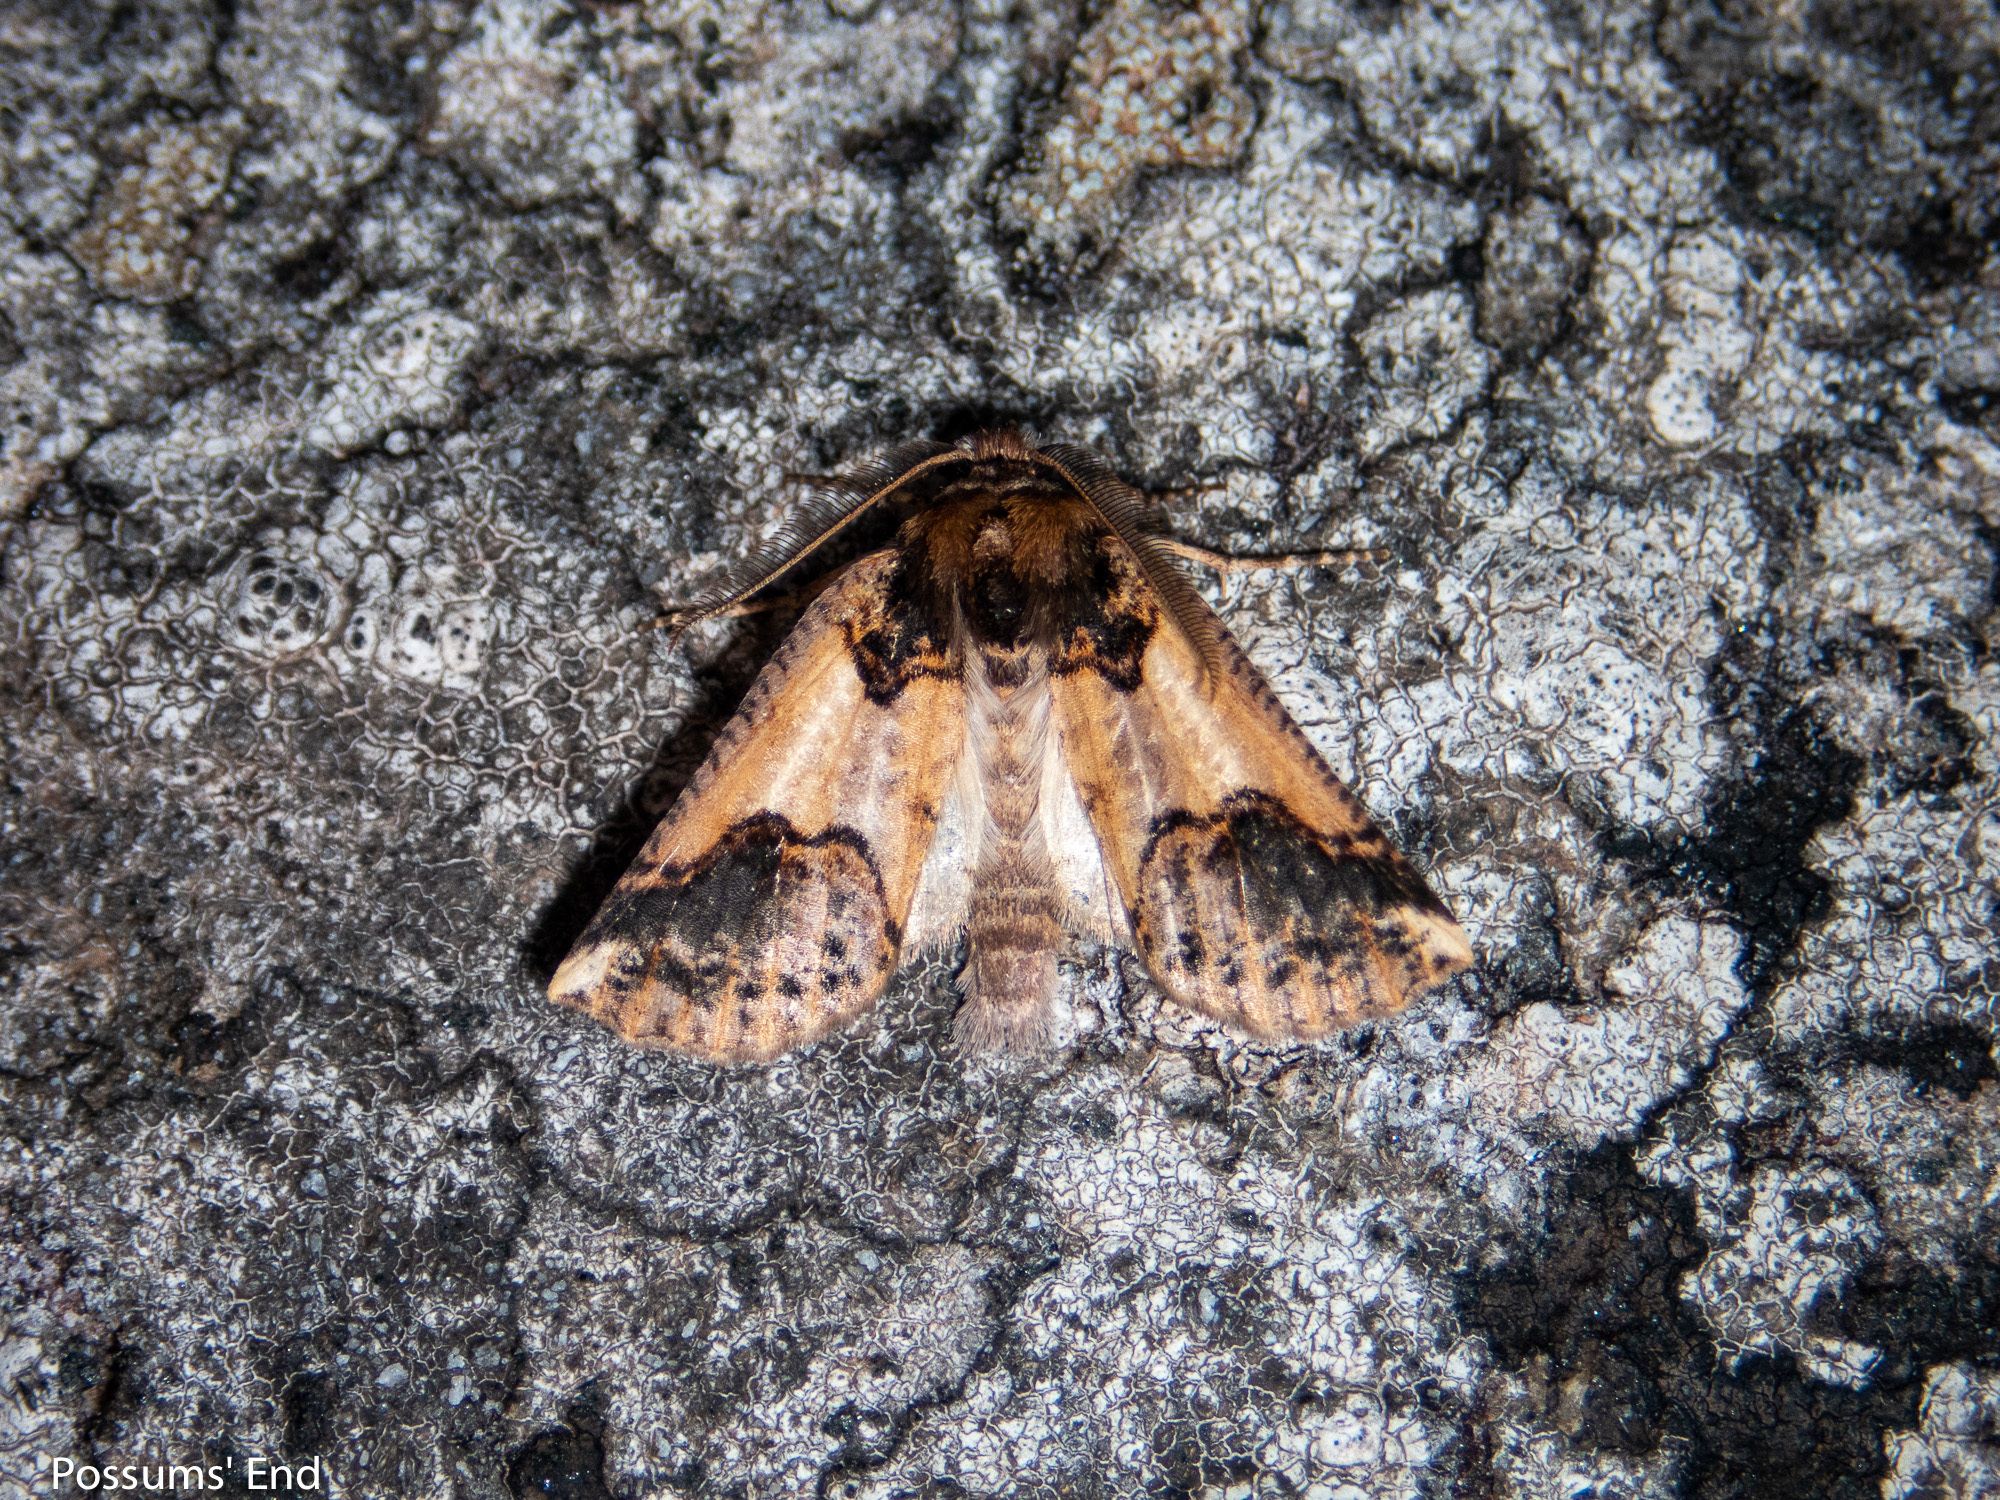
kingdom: Animalia
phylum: Arthropoda
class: Insecta
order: Lepidoptera
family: Geometridae
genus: Declana
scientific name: Declana
